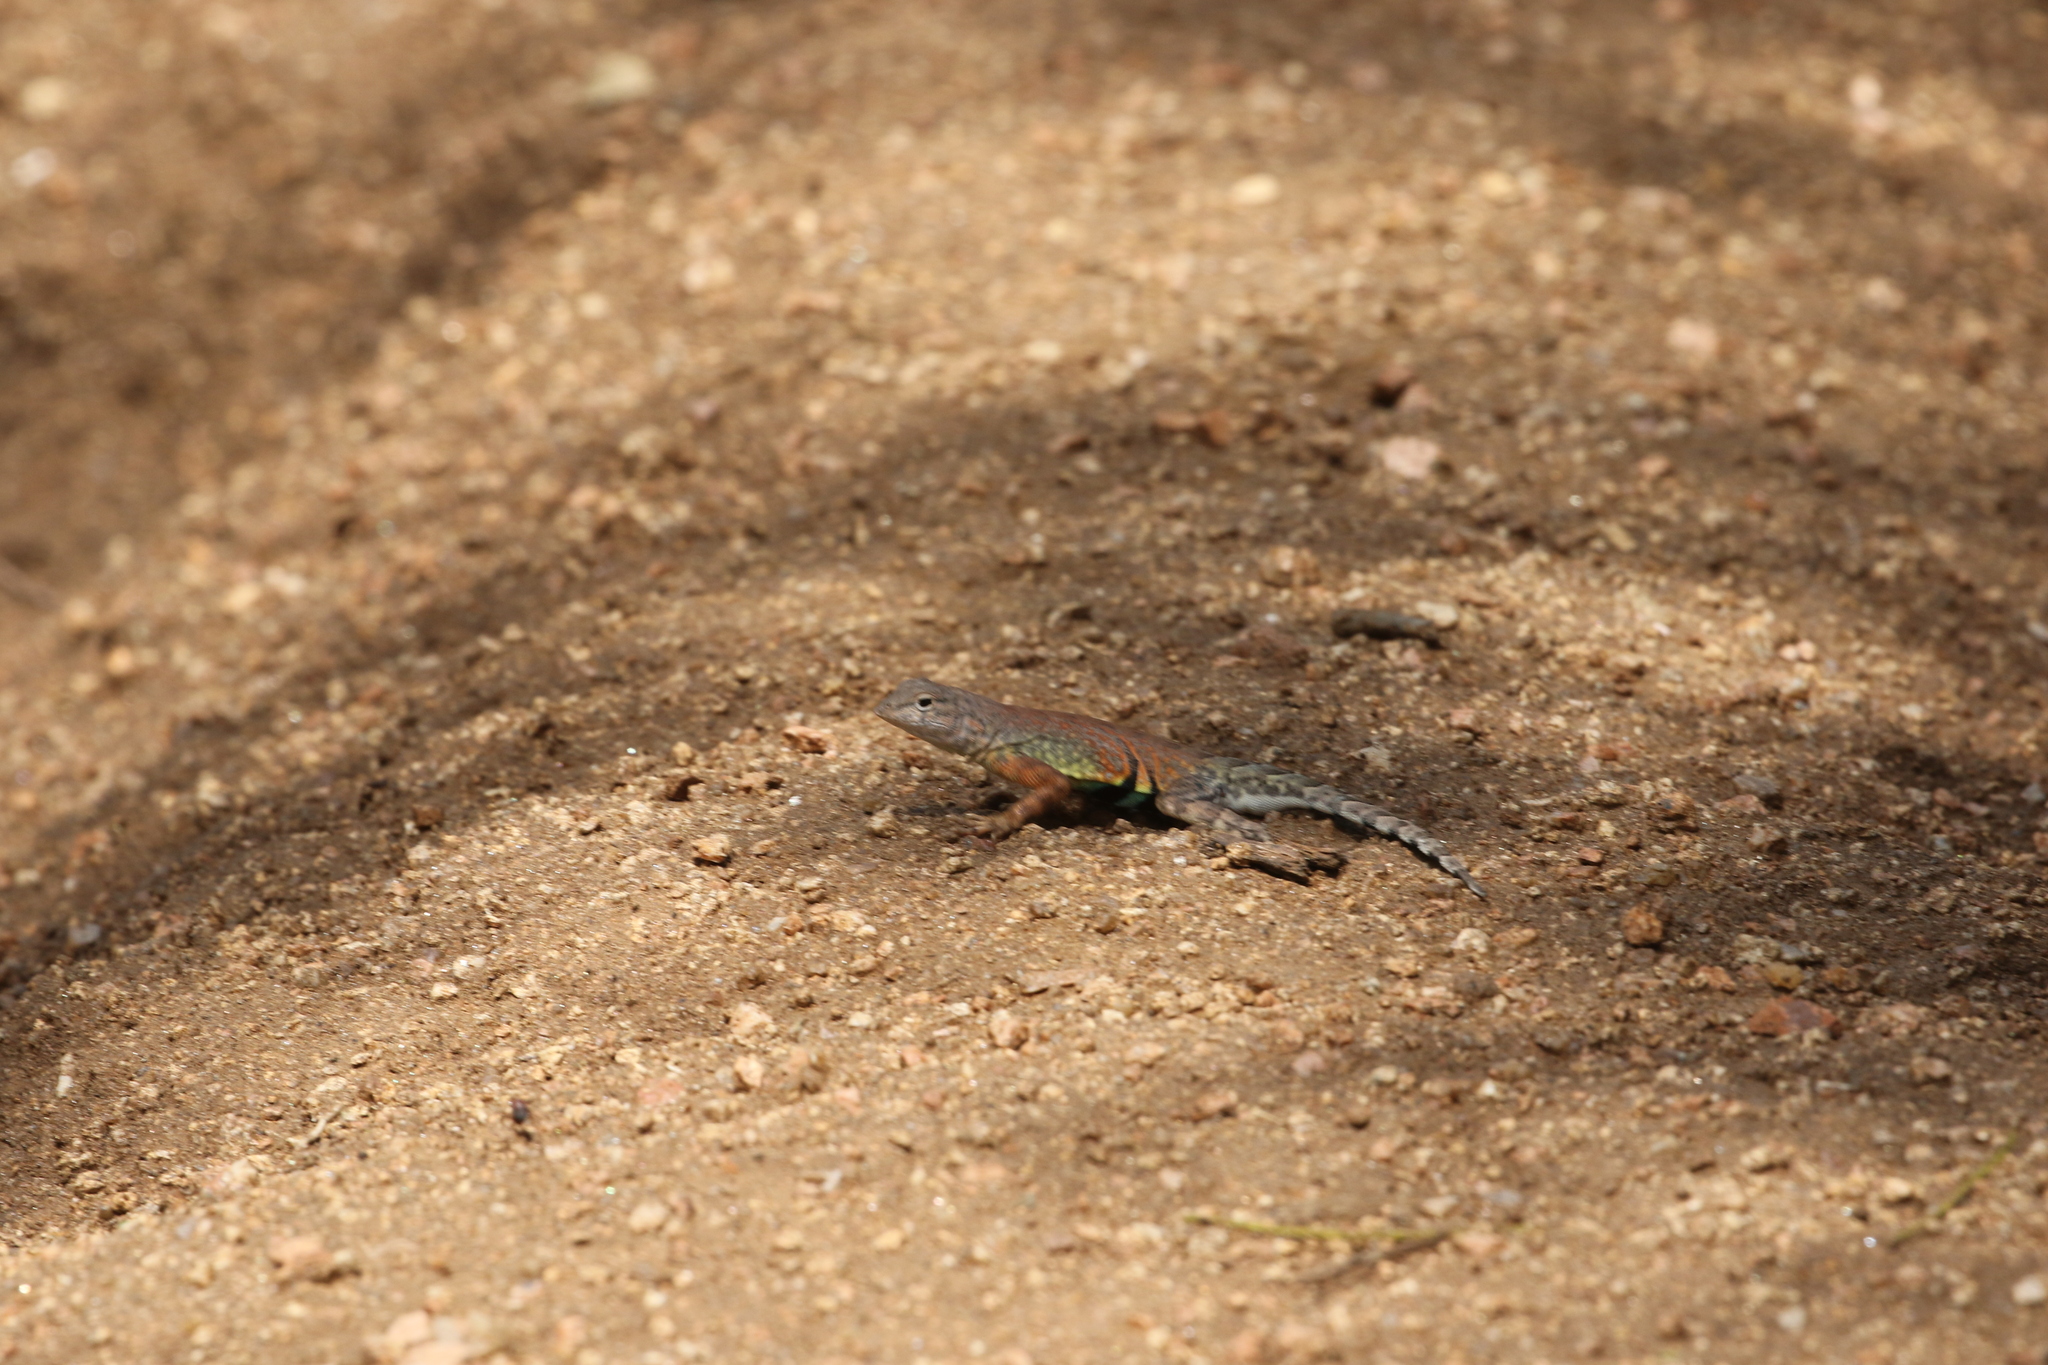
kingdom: Animalia
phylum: Chordata
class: Squamata
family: Phrynosomatidae
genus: Cophosaurus
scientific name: Cophosaurus texanus
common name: Greater earless lizard
